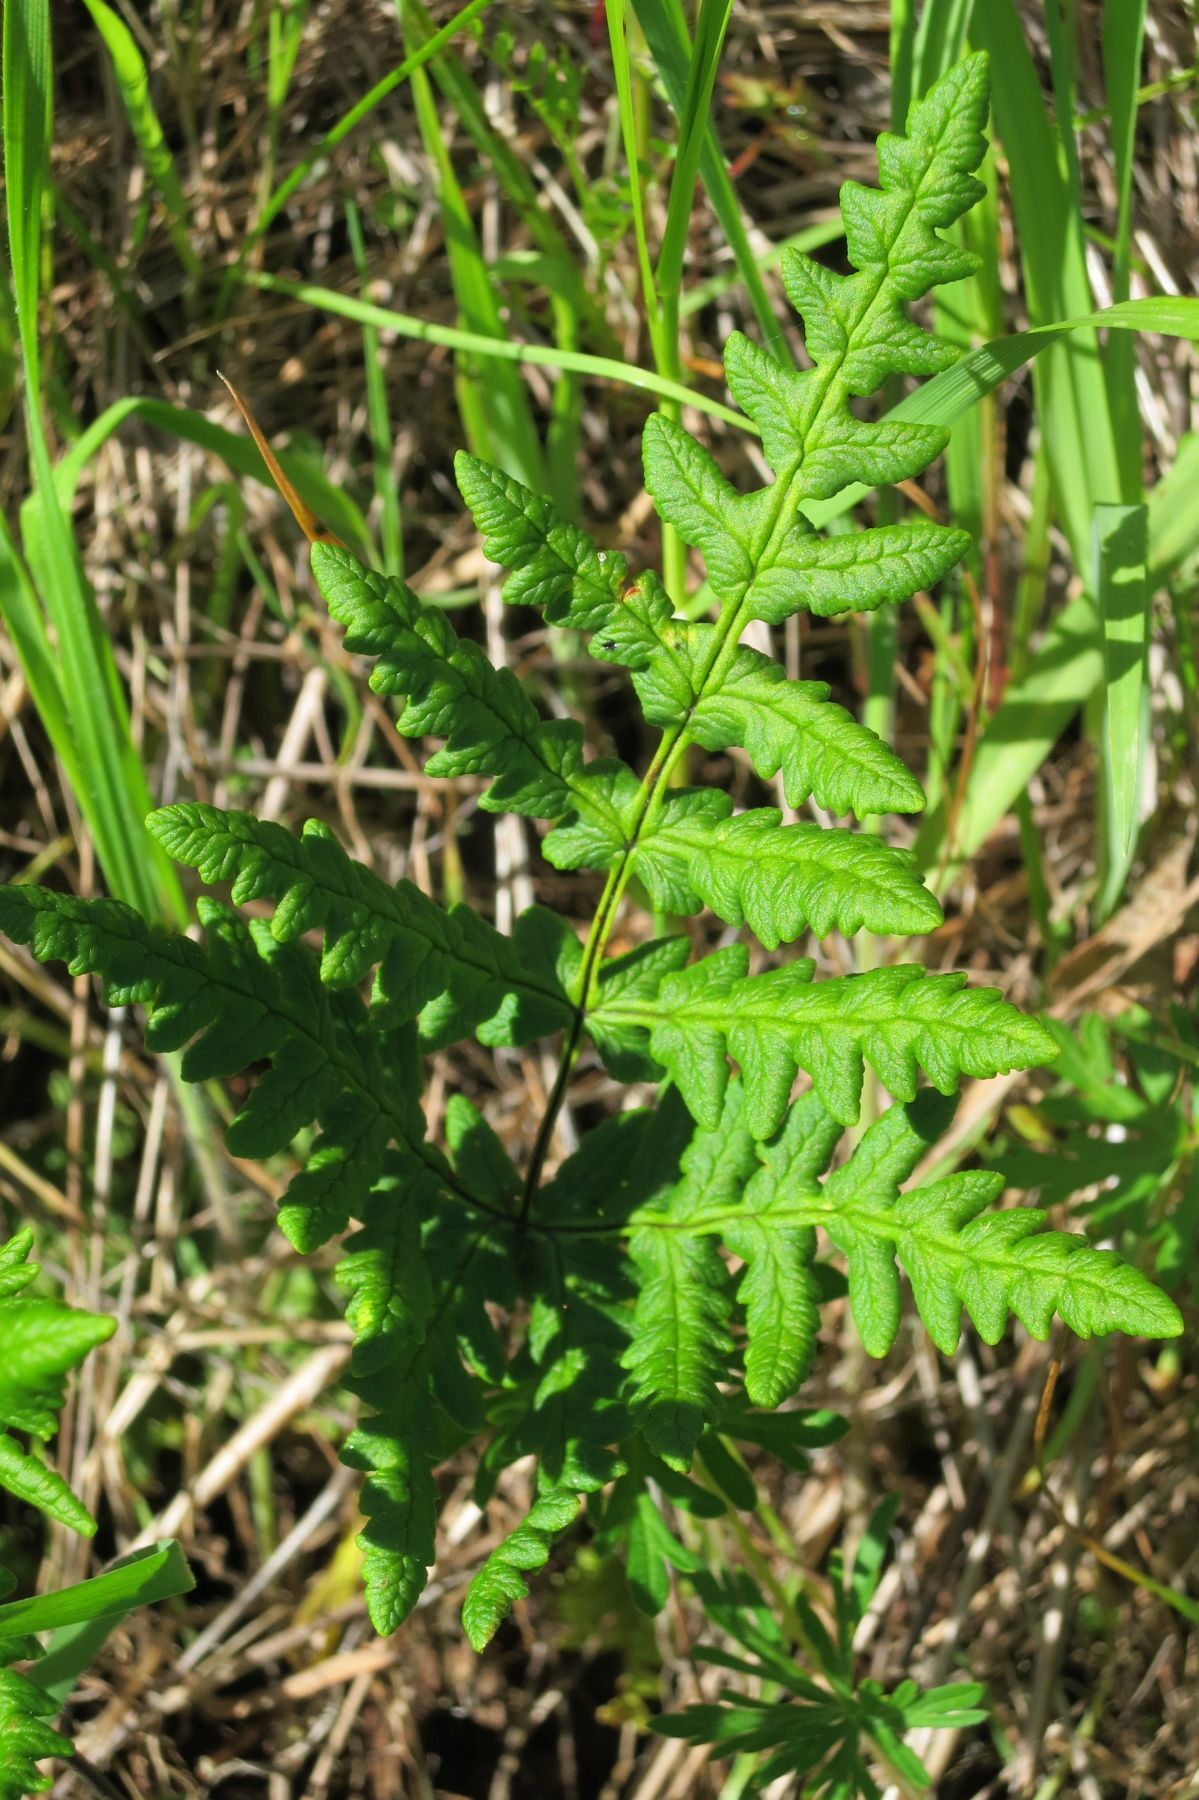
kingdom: Plantae
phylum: Tracheophyta
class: Polypodiopsida
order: Polypodiales
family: Pteridaceae
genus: Pentagramma
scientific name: Pentagramma triangularis
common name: Gold fern
